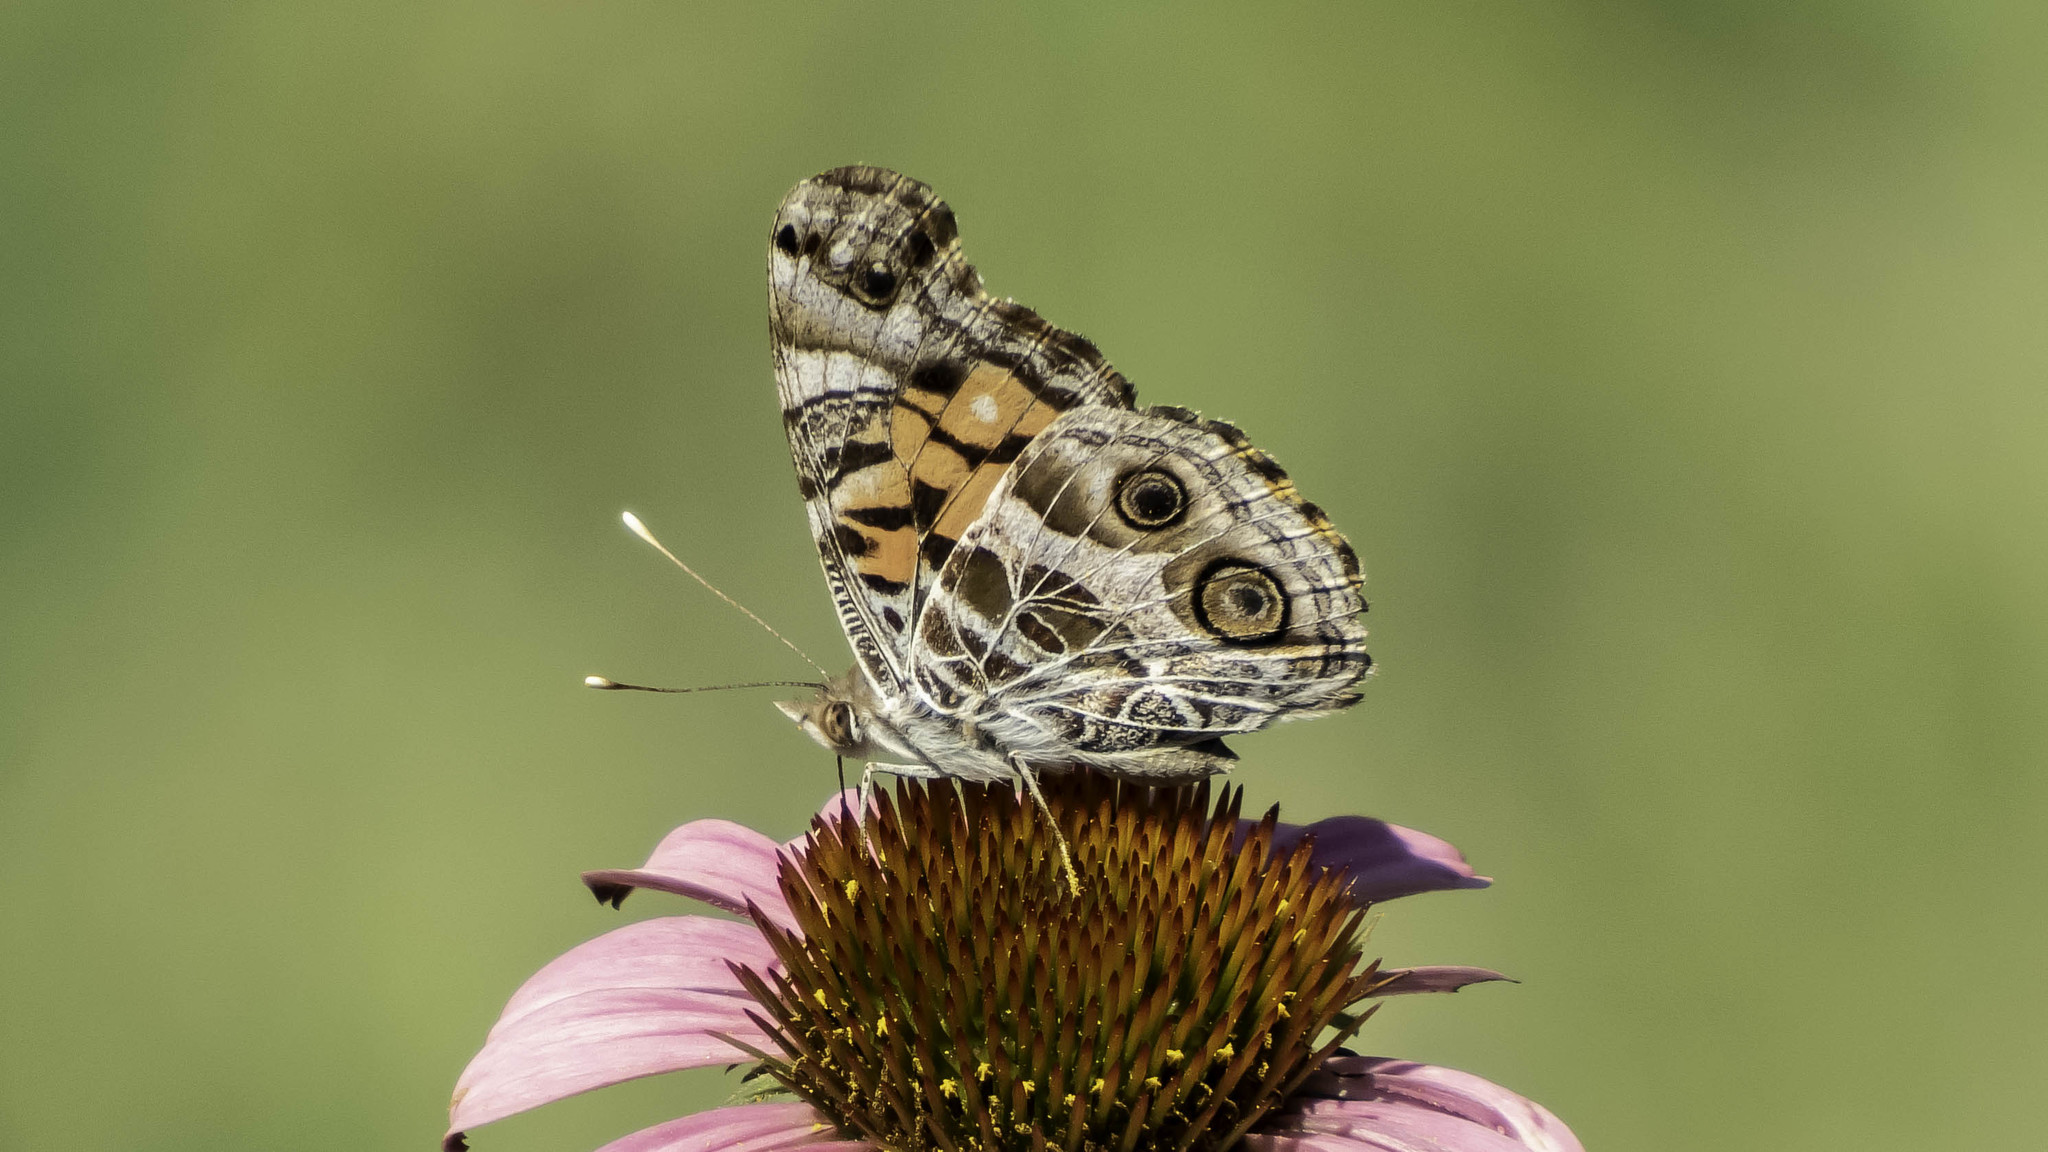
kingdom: Animalia
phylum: Arthropoda
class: Insecta
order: Lepidoptera
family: Nymphalidae
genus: Vanessa
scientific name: Vanessa virginiensis
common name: American lady
